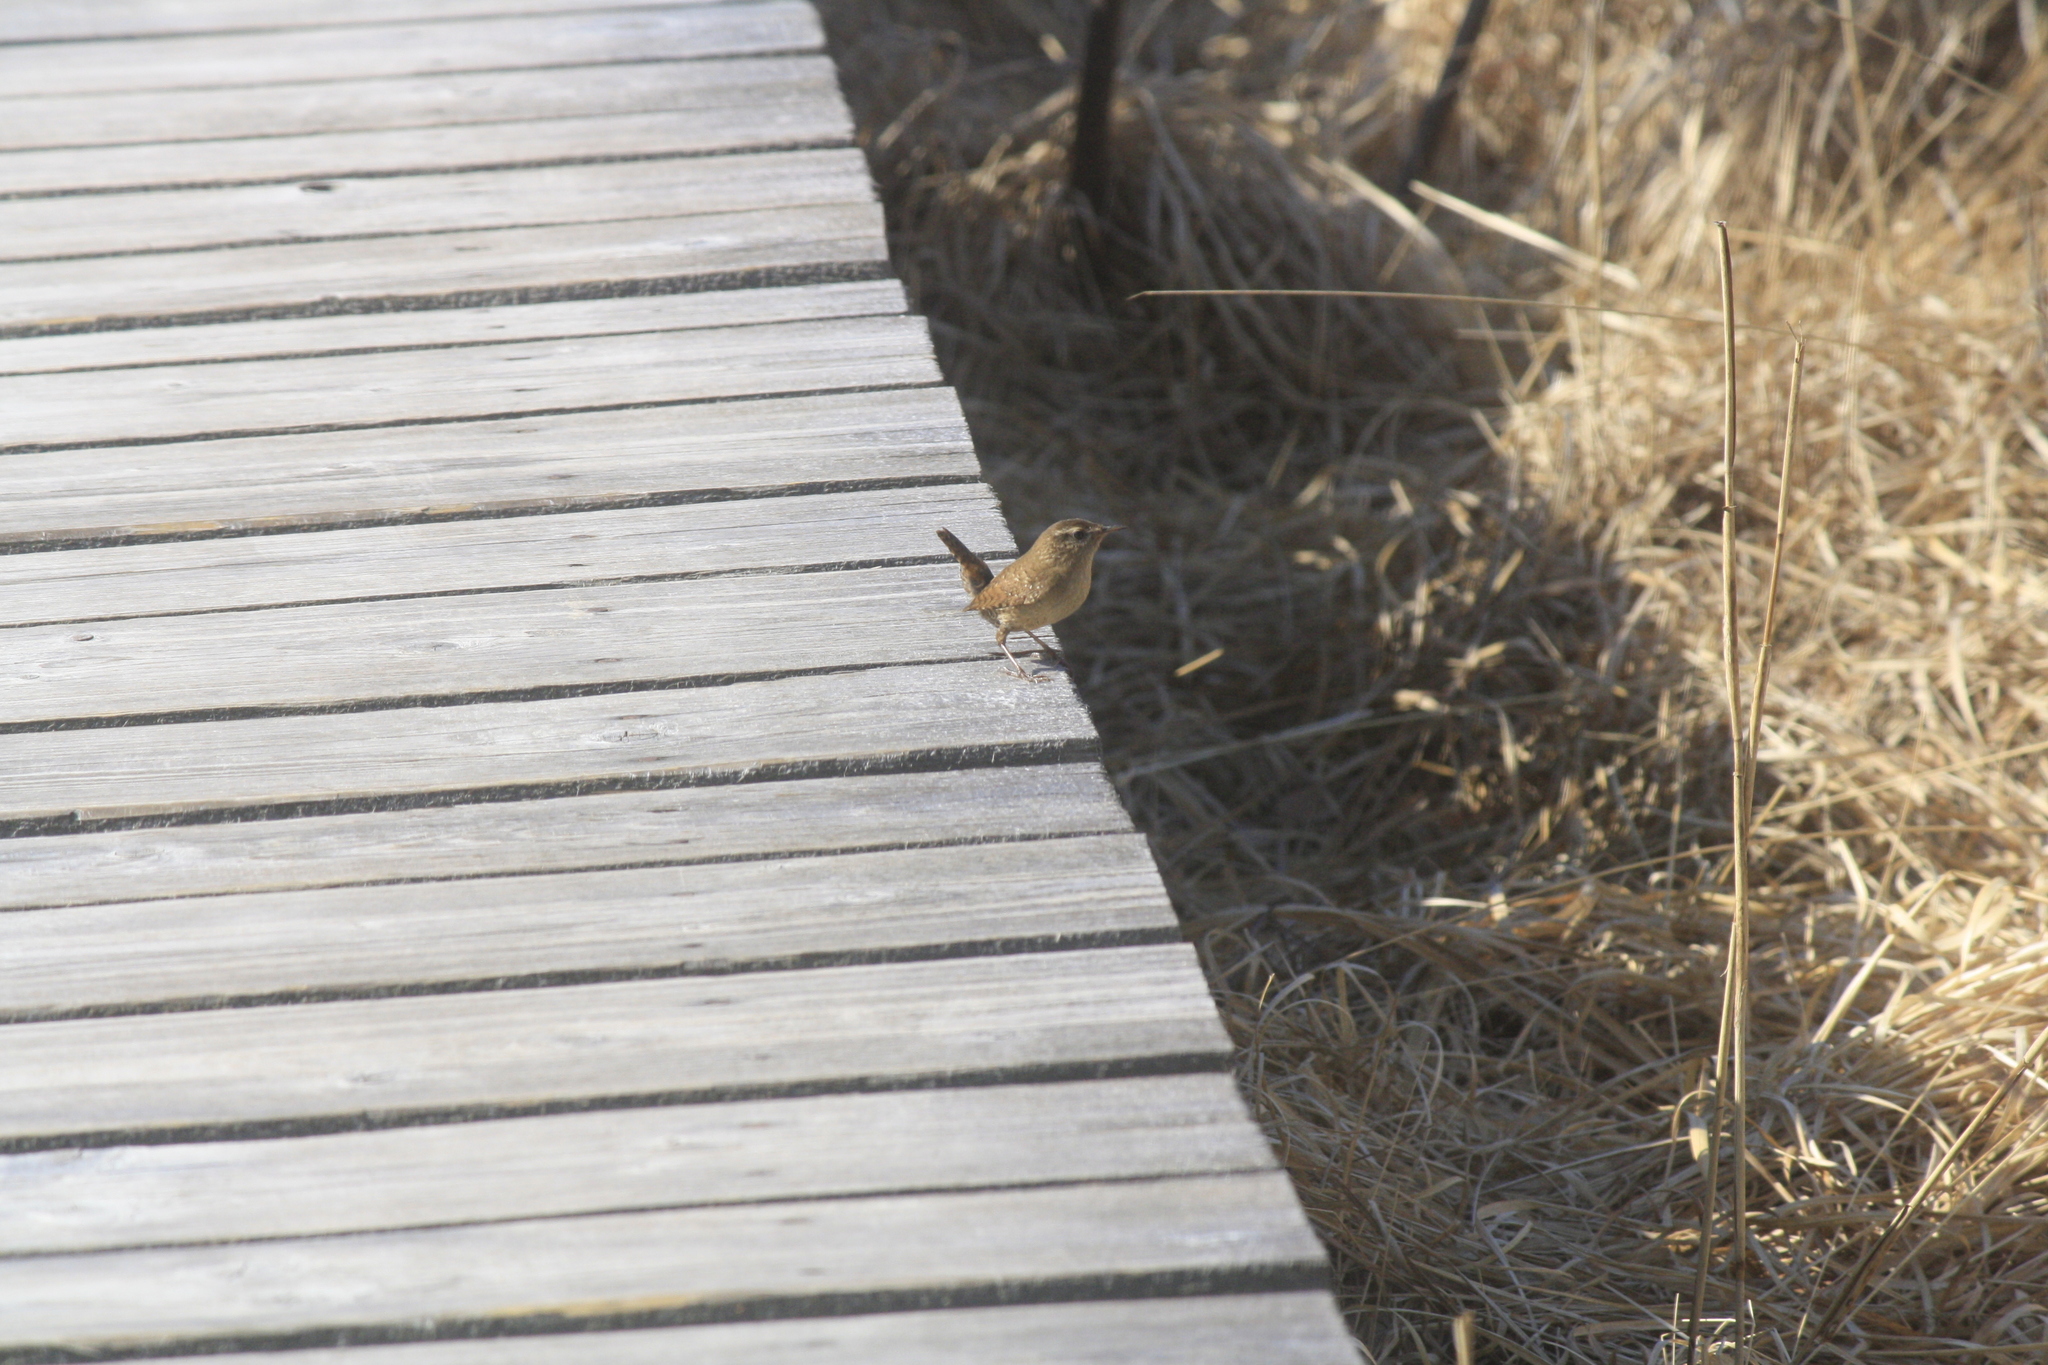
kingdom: Animalia
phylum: Chordata
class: Aves
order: Passeriformes
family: Troglodytidae
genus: Troglodytes
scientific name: Troglodytes troglodytes
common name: Eurasian wren
